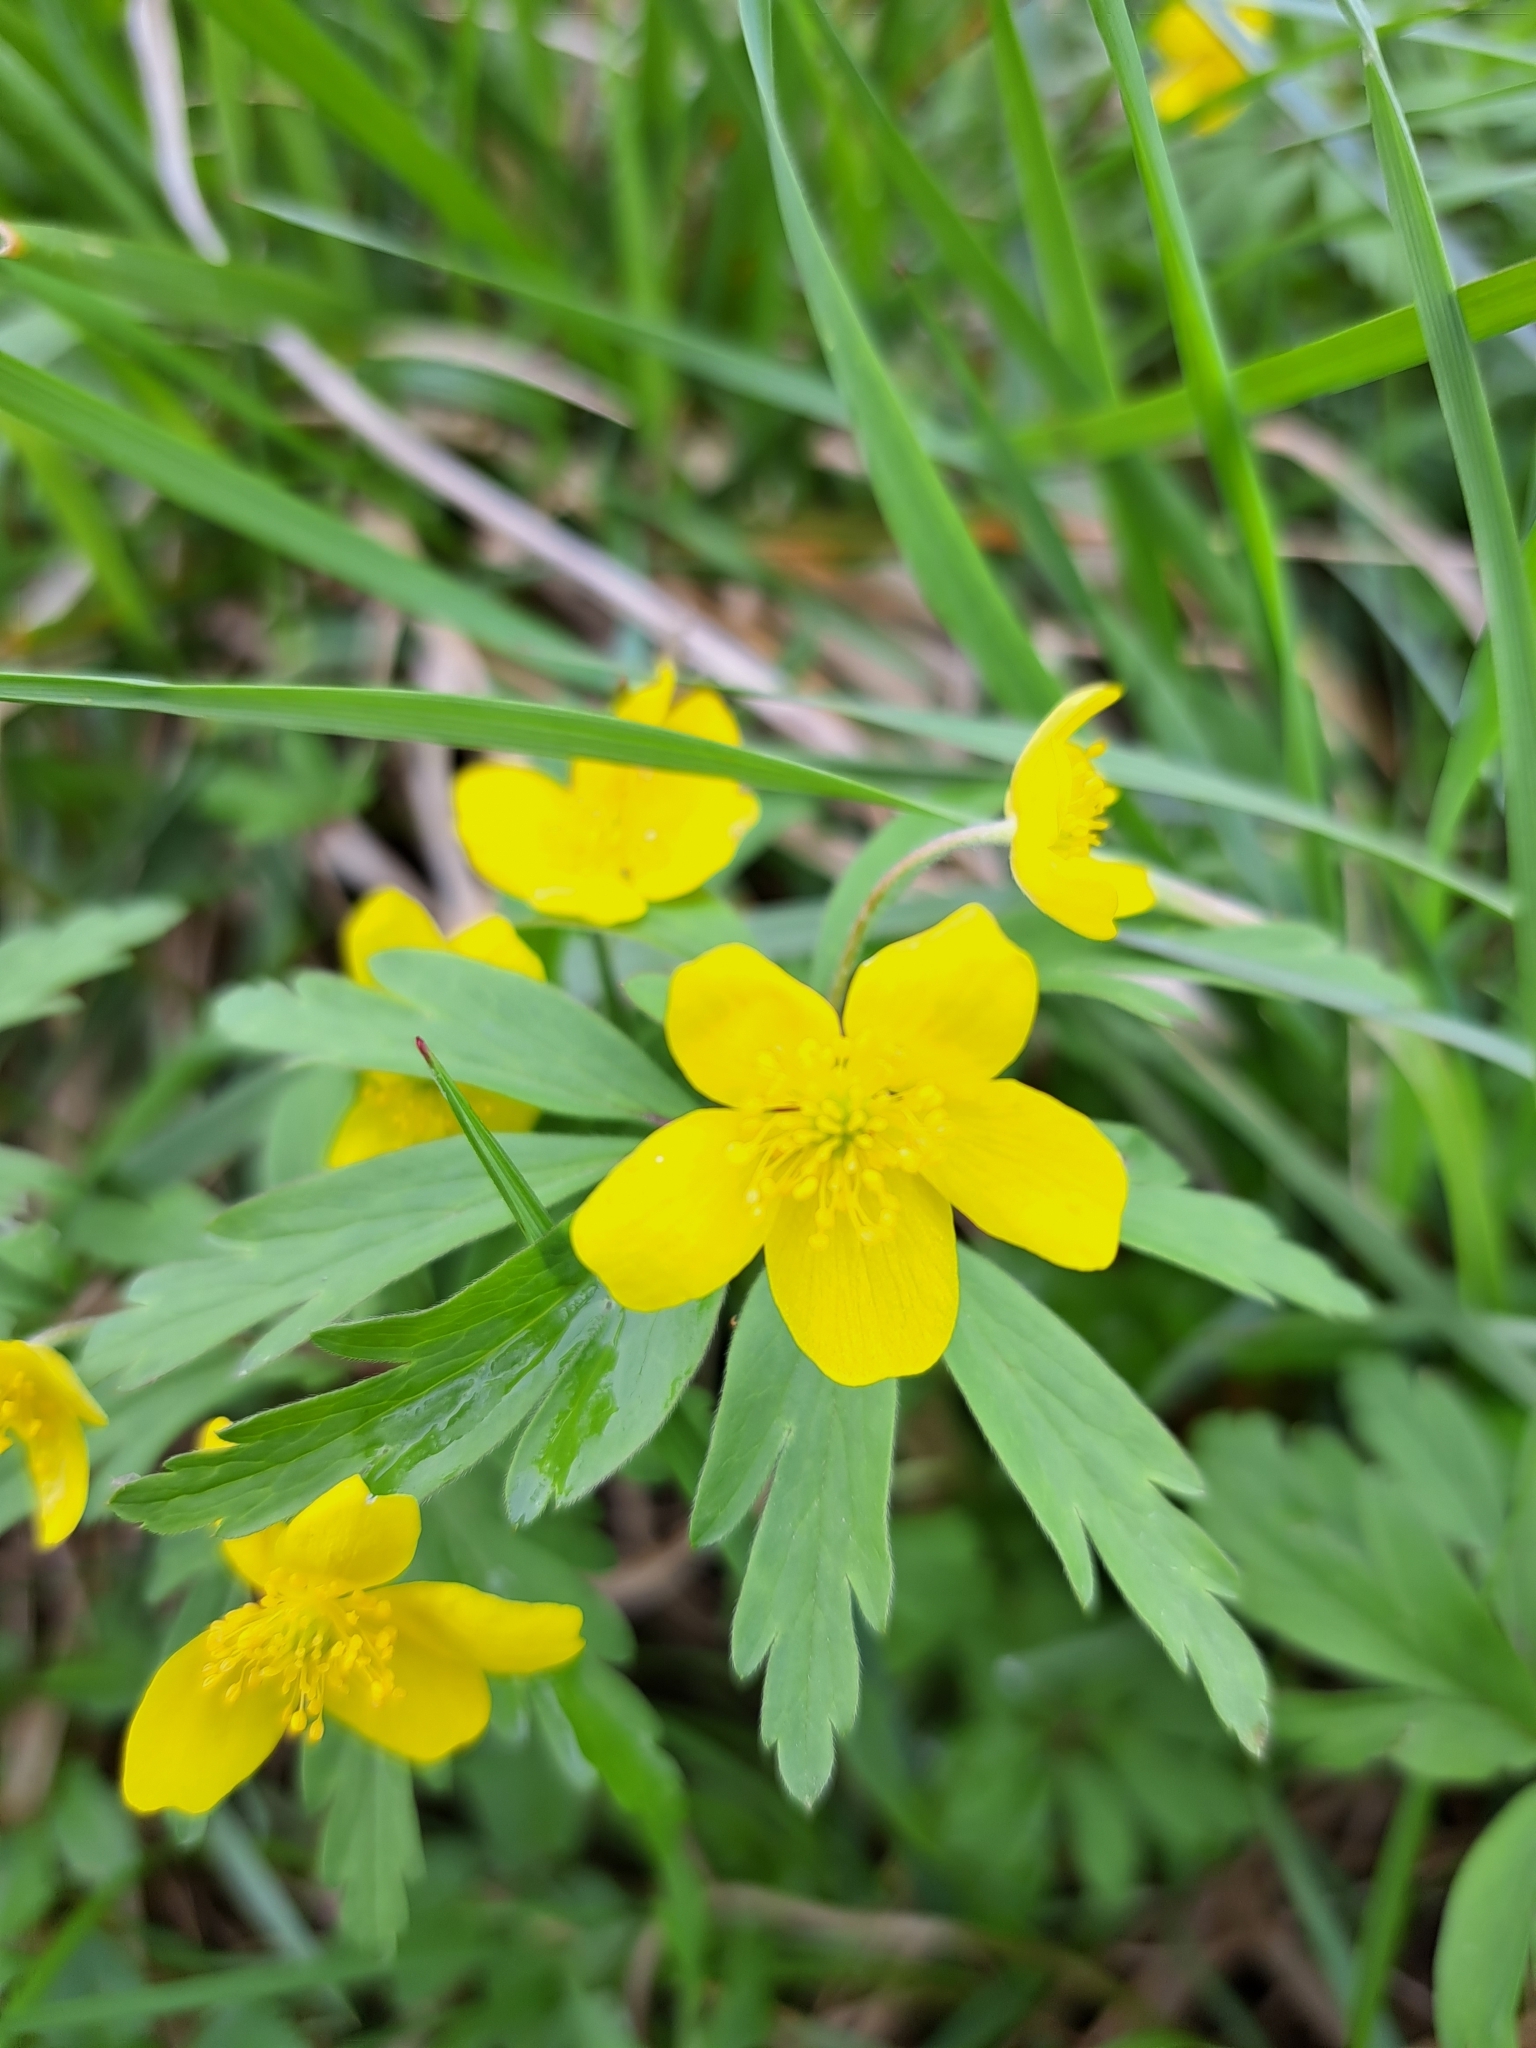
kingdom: Plantae
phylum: Tracheophyta
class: Magnoliopsida
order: Ranunculales
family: Ranunculaceae
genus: Anemone
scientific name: Anemone ranunculoides
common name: Yellow anemone
